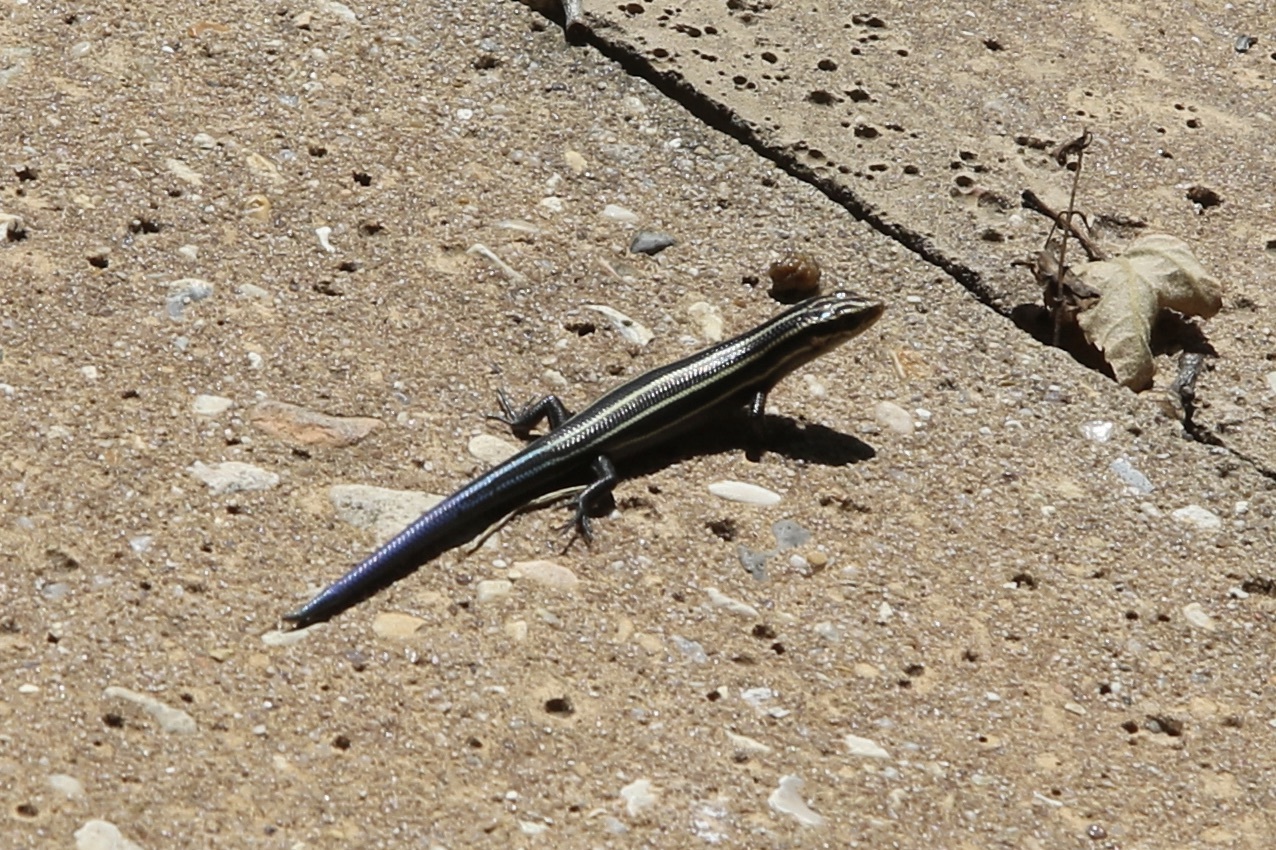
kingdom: Animalia
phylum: Chordata
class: Squamata
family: Scincidae
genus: Plestiodon
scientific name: Plestiodon fasciatus
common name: Five-lined skink
